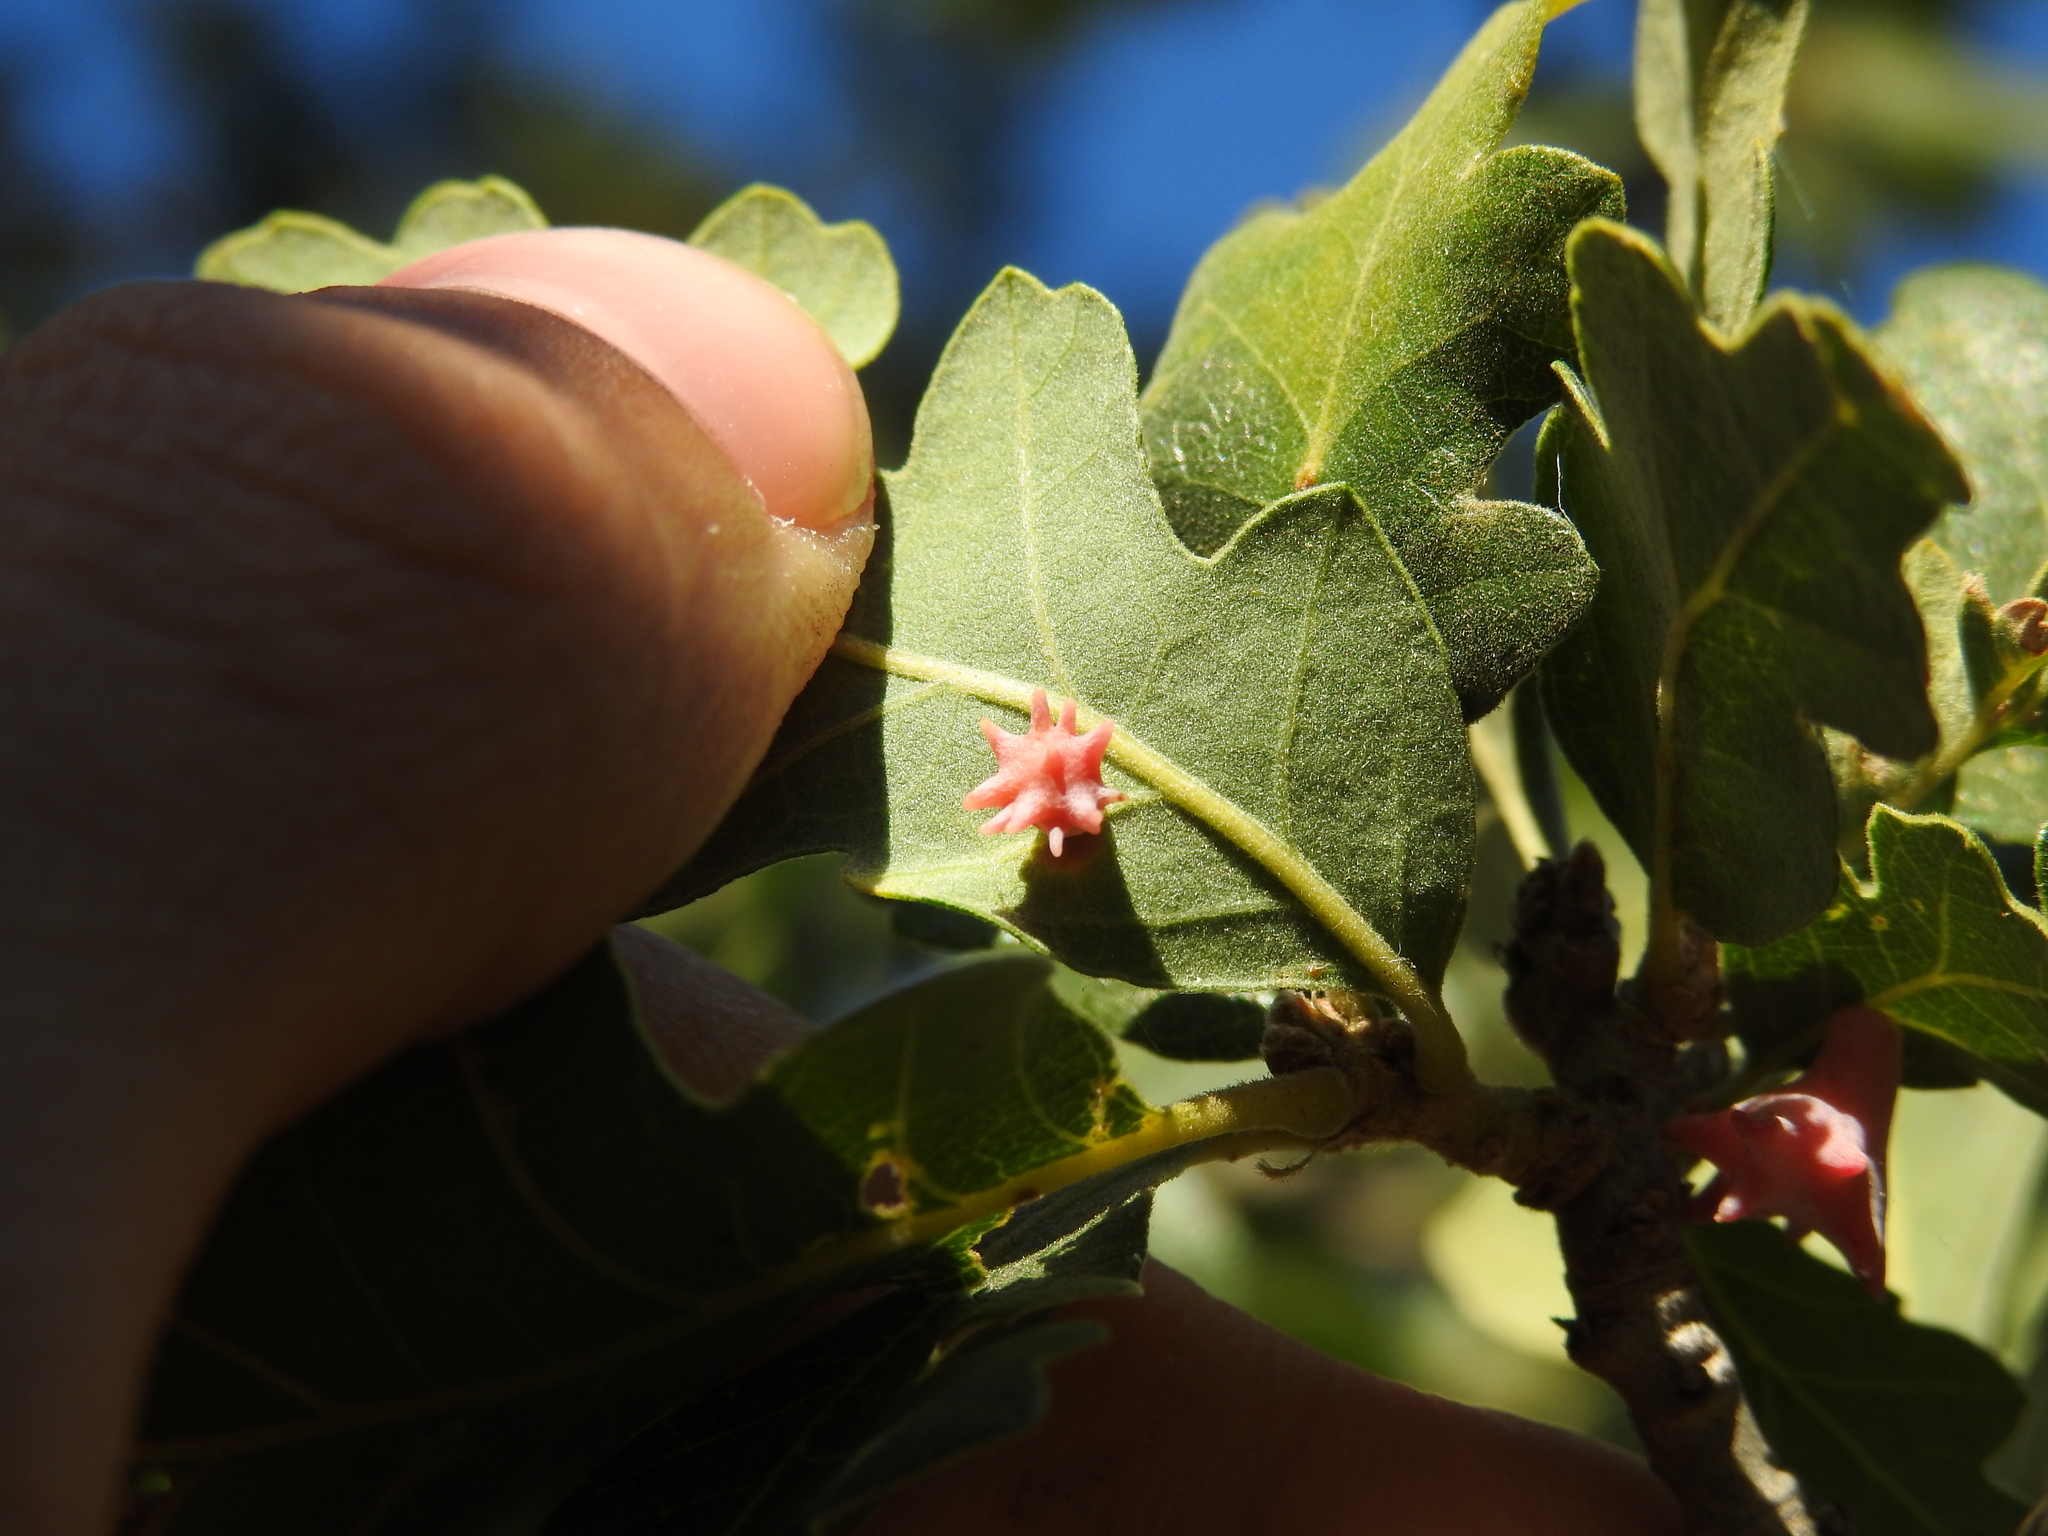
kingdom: Animalia
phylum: Arthropoda
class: Insecta
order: Hymenoptera
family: Cynipidae
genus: Cynips
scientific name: Cynips douglasi
